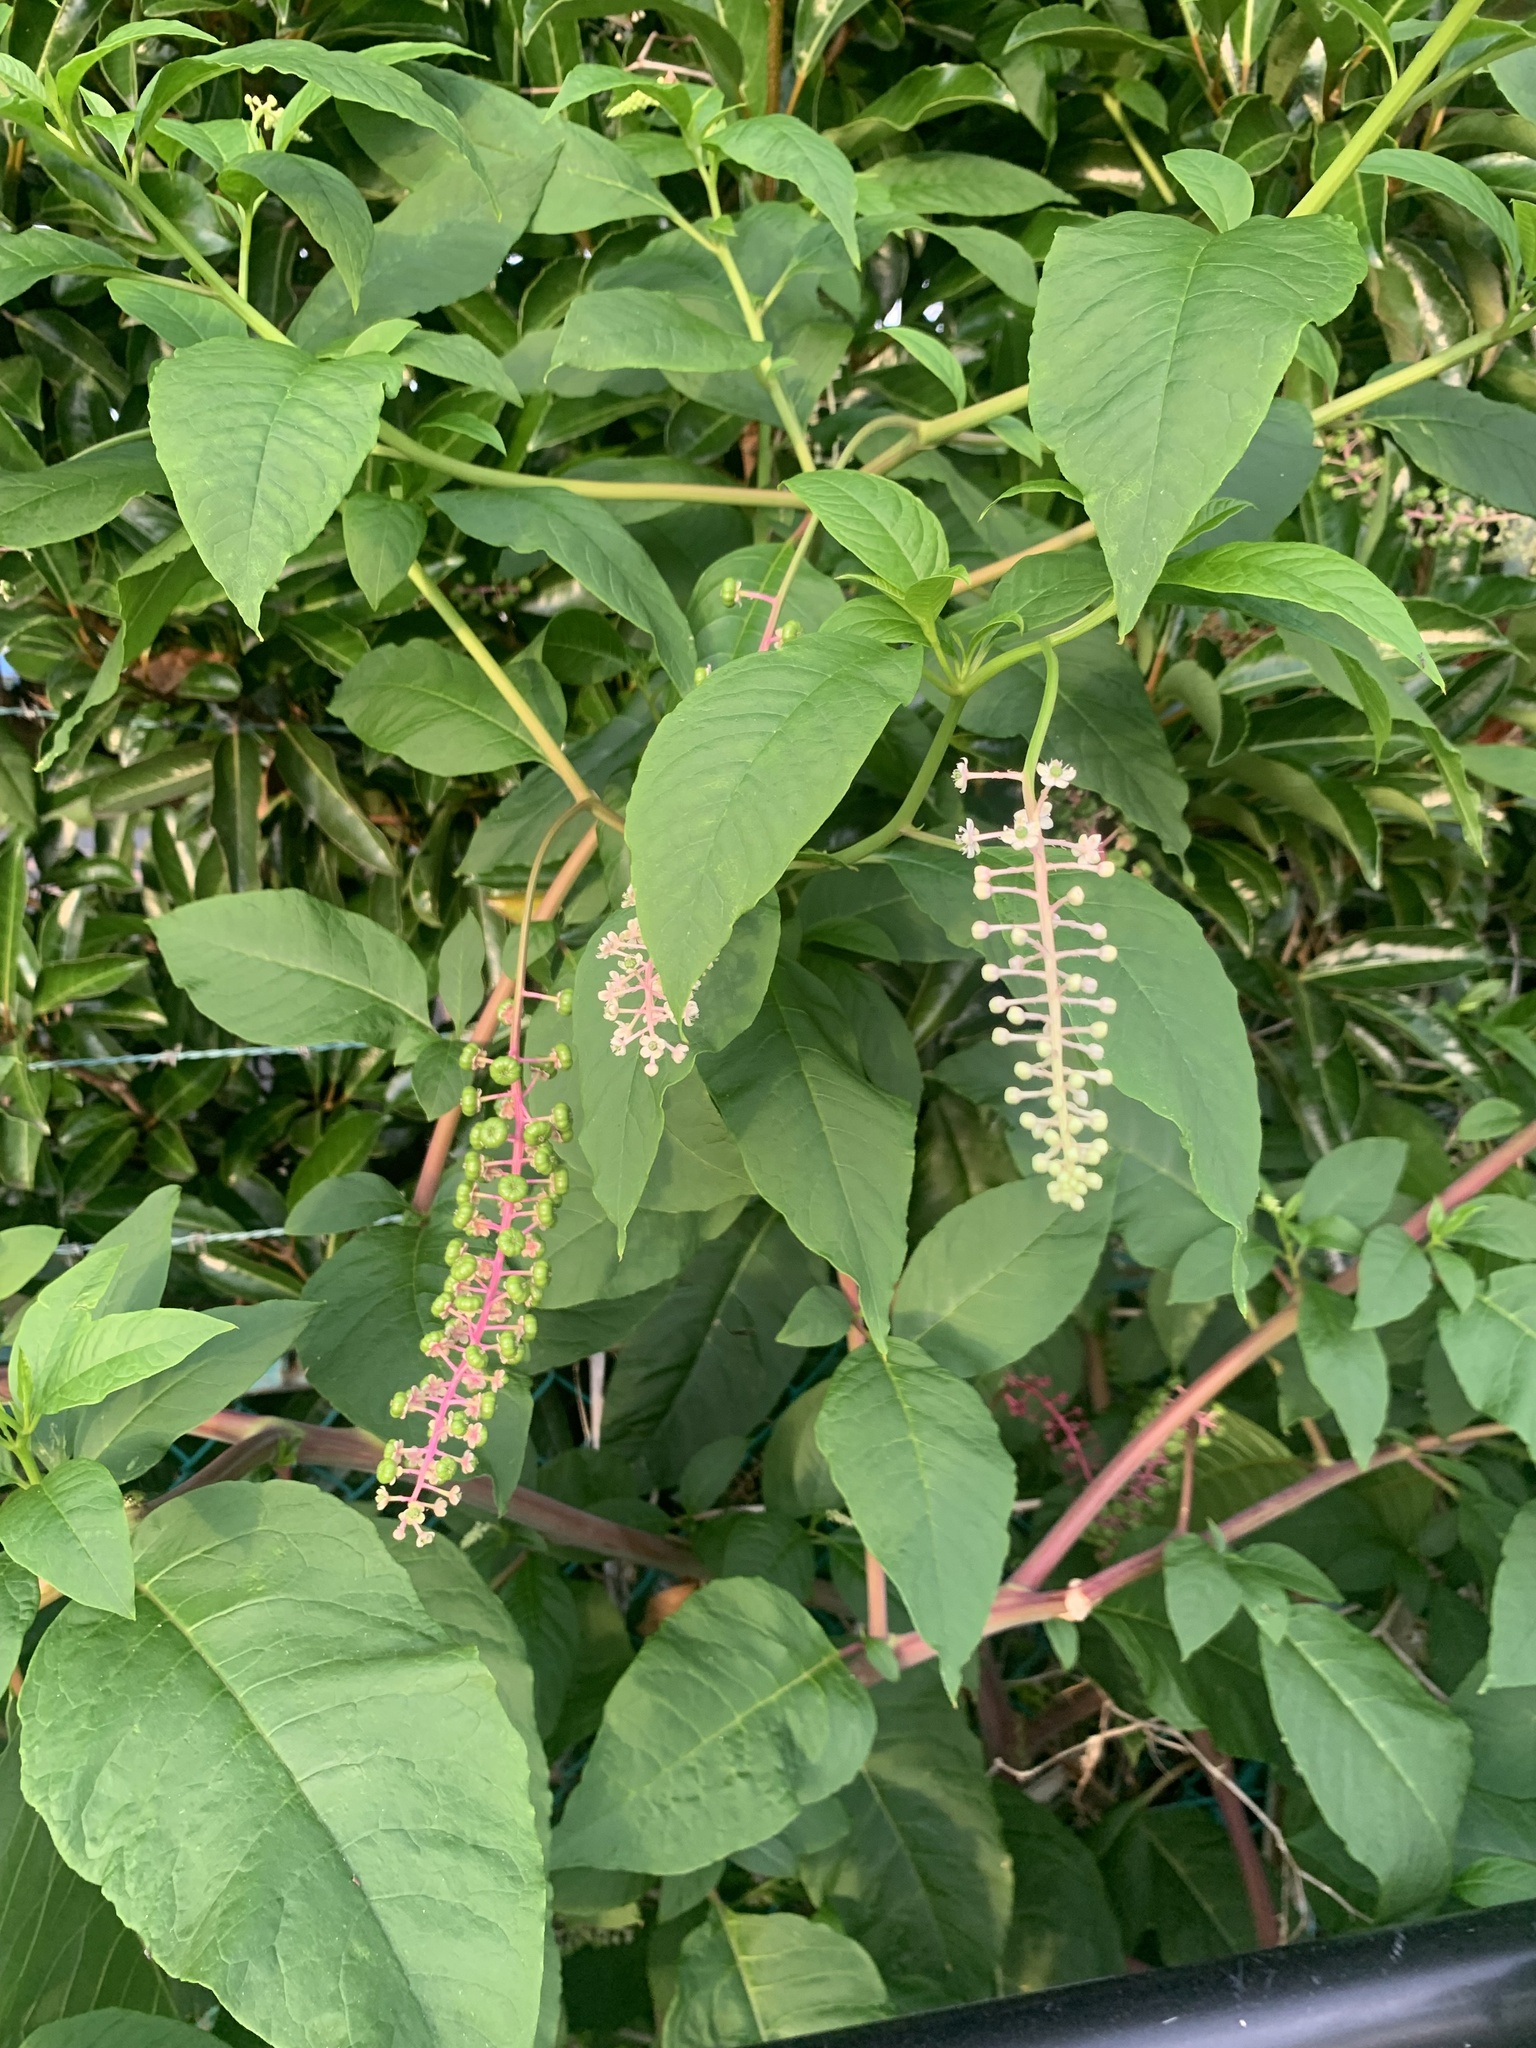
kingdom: Plantae
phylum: Tracheophyta
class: Magnoliopsida
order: Caryophyllales
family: Phytolaccaceae
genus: Phytolacca
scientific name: Phytolacca americana
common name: American pokeweed
